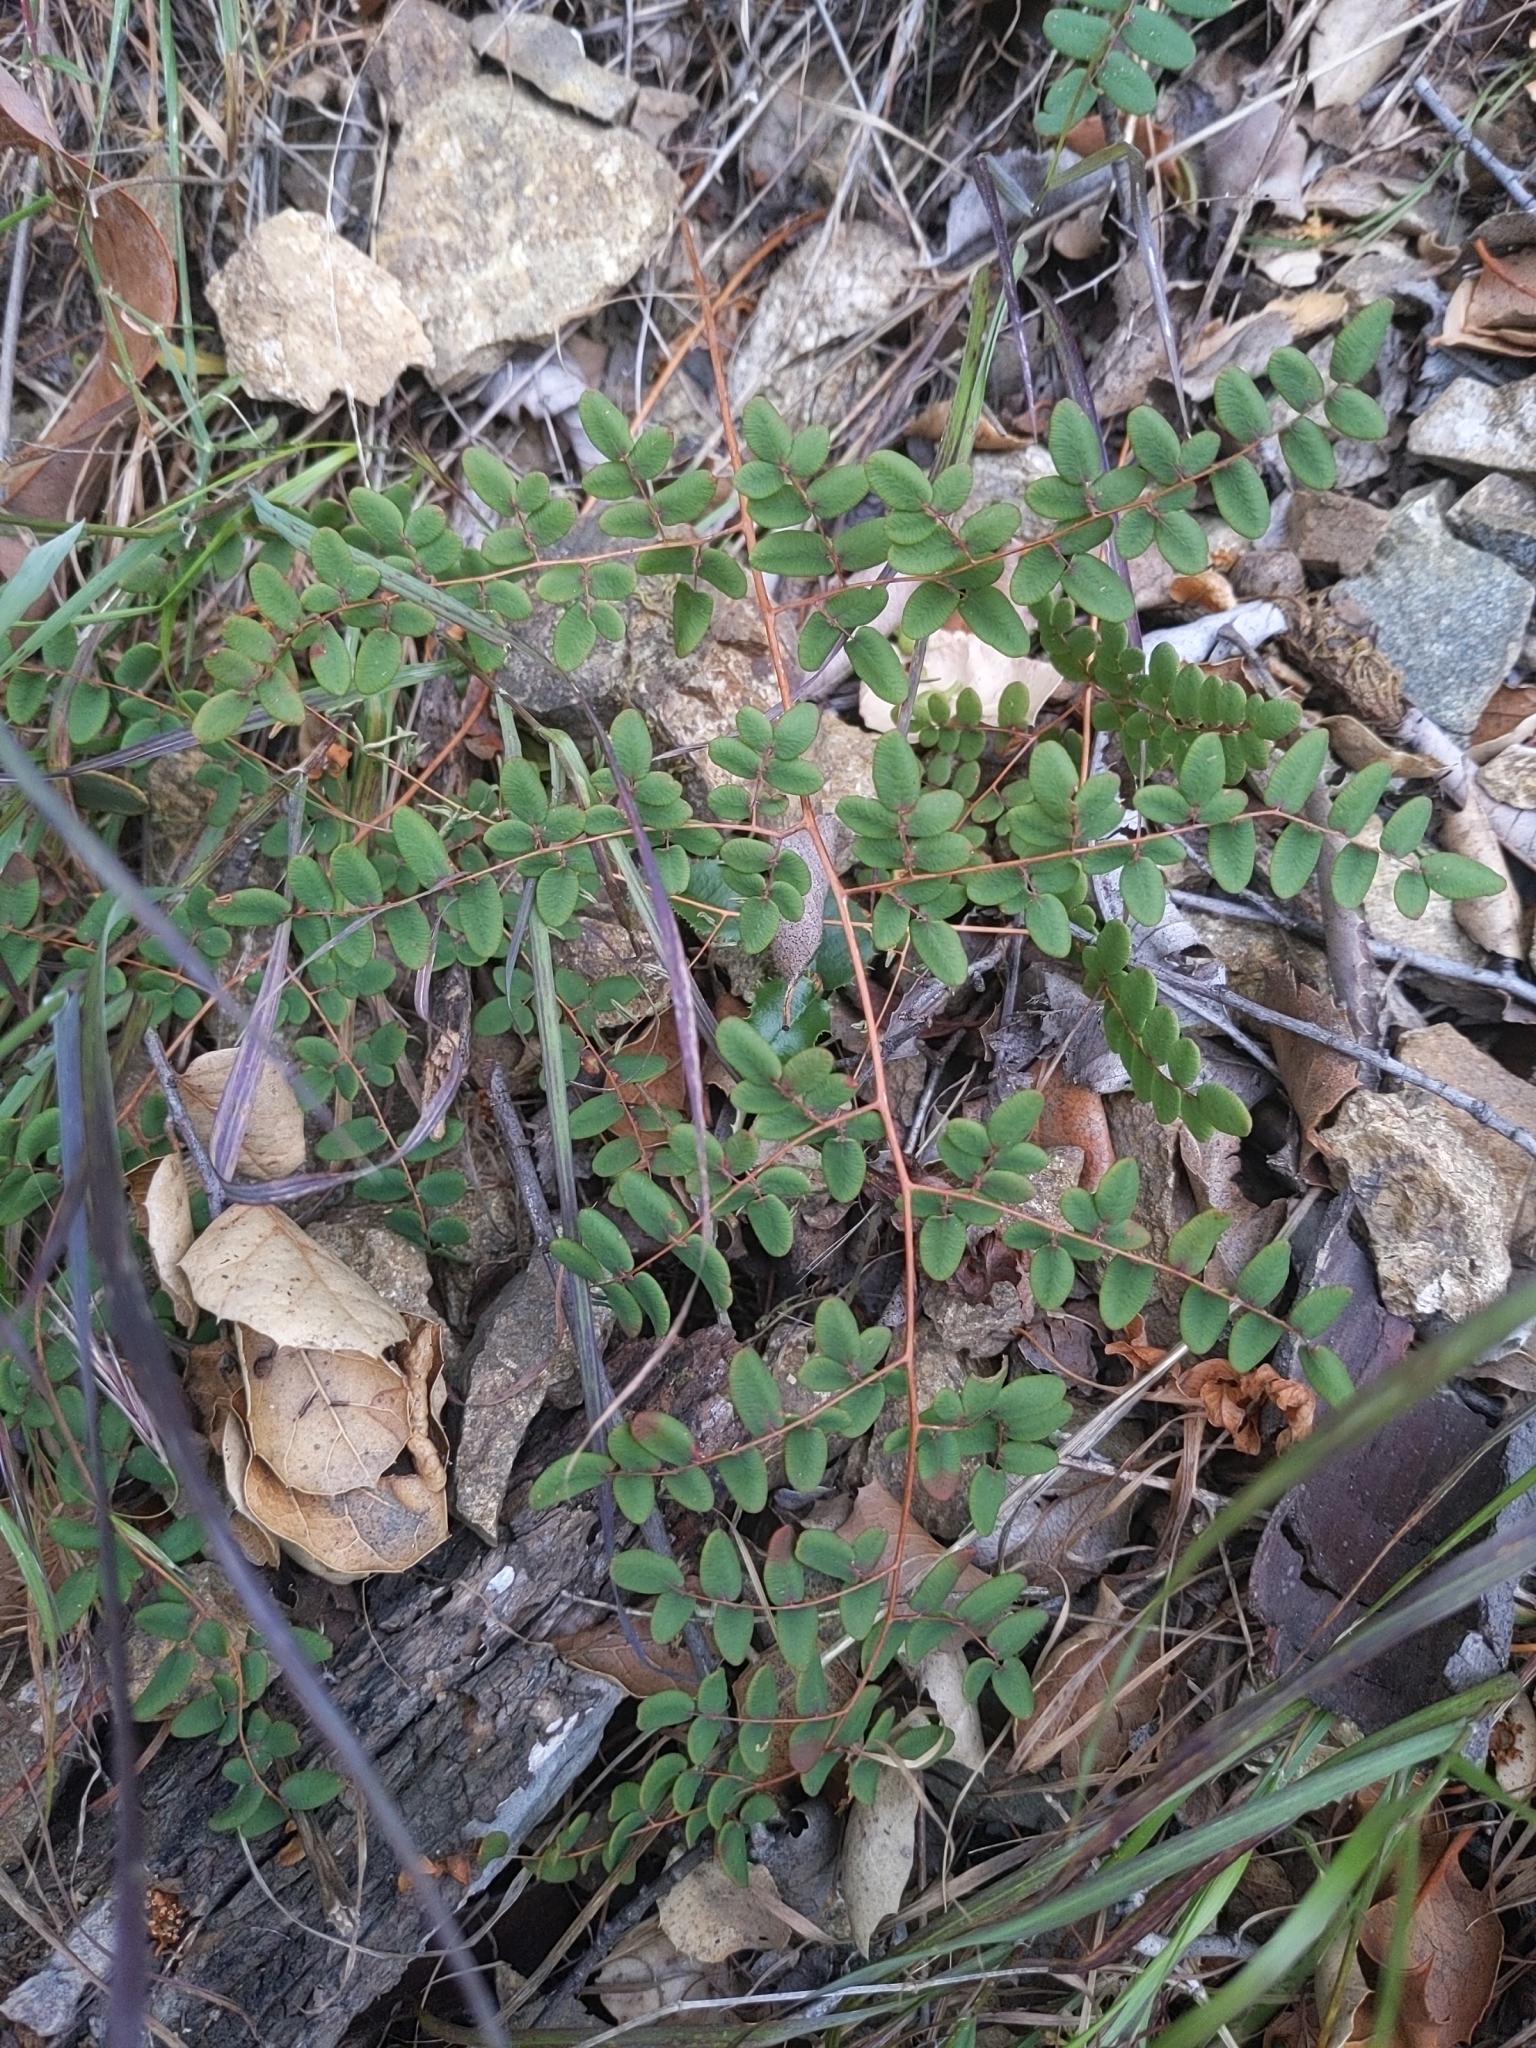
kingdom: Plantae
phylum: Tracheophyta
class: Polypodiopsida
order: Polypodiales
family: Pteridaceae
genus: Pellaea
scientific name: Pellaea andromedifolia
